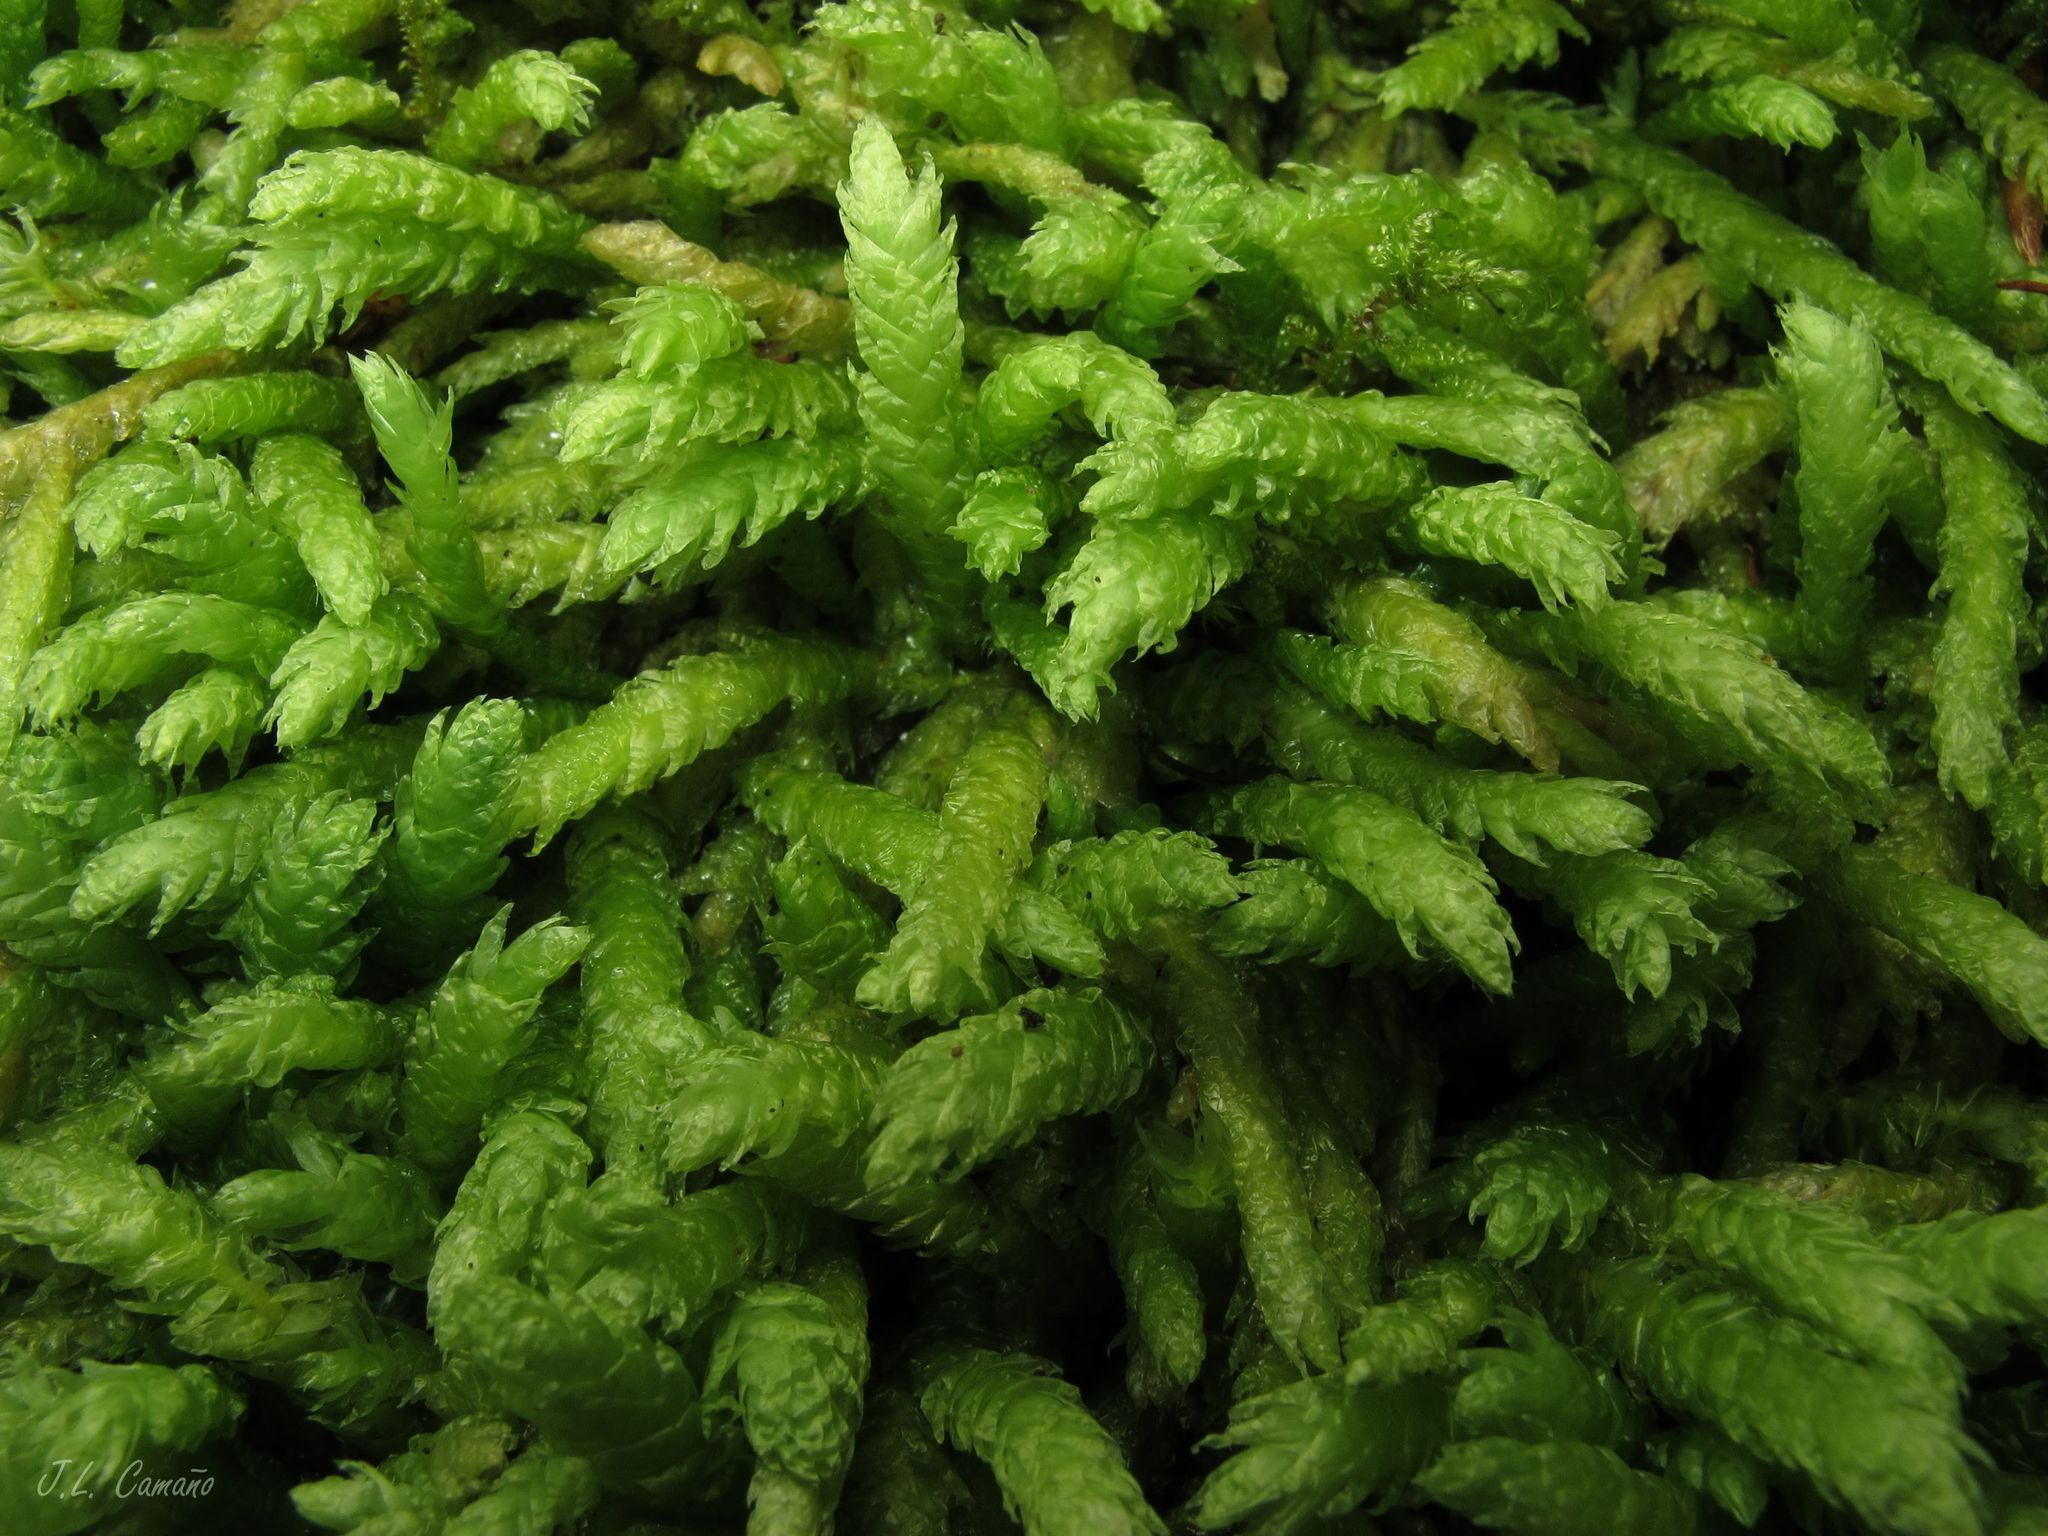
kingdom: Plantae
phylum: Bryophyta
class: Bryopsida
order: Hypnales
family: Plagiotheciaceae
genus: Plagiothecium
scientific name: Plagiothecium undulatum
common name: Waved silk-moss
